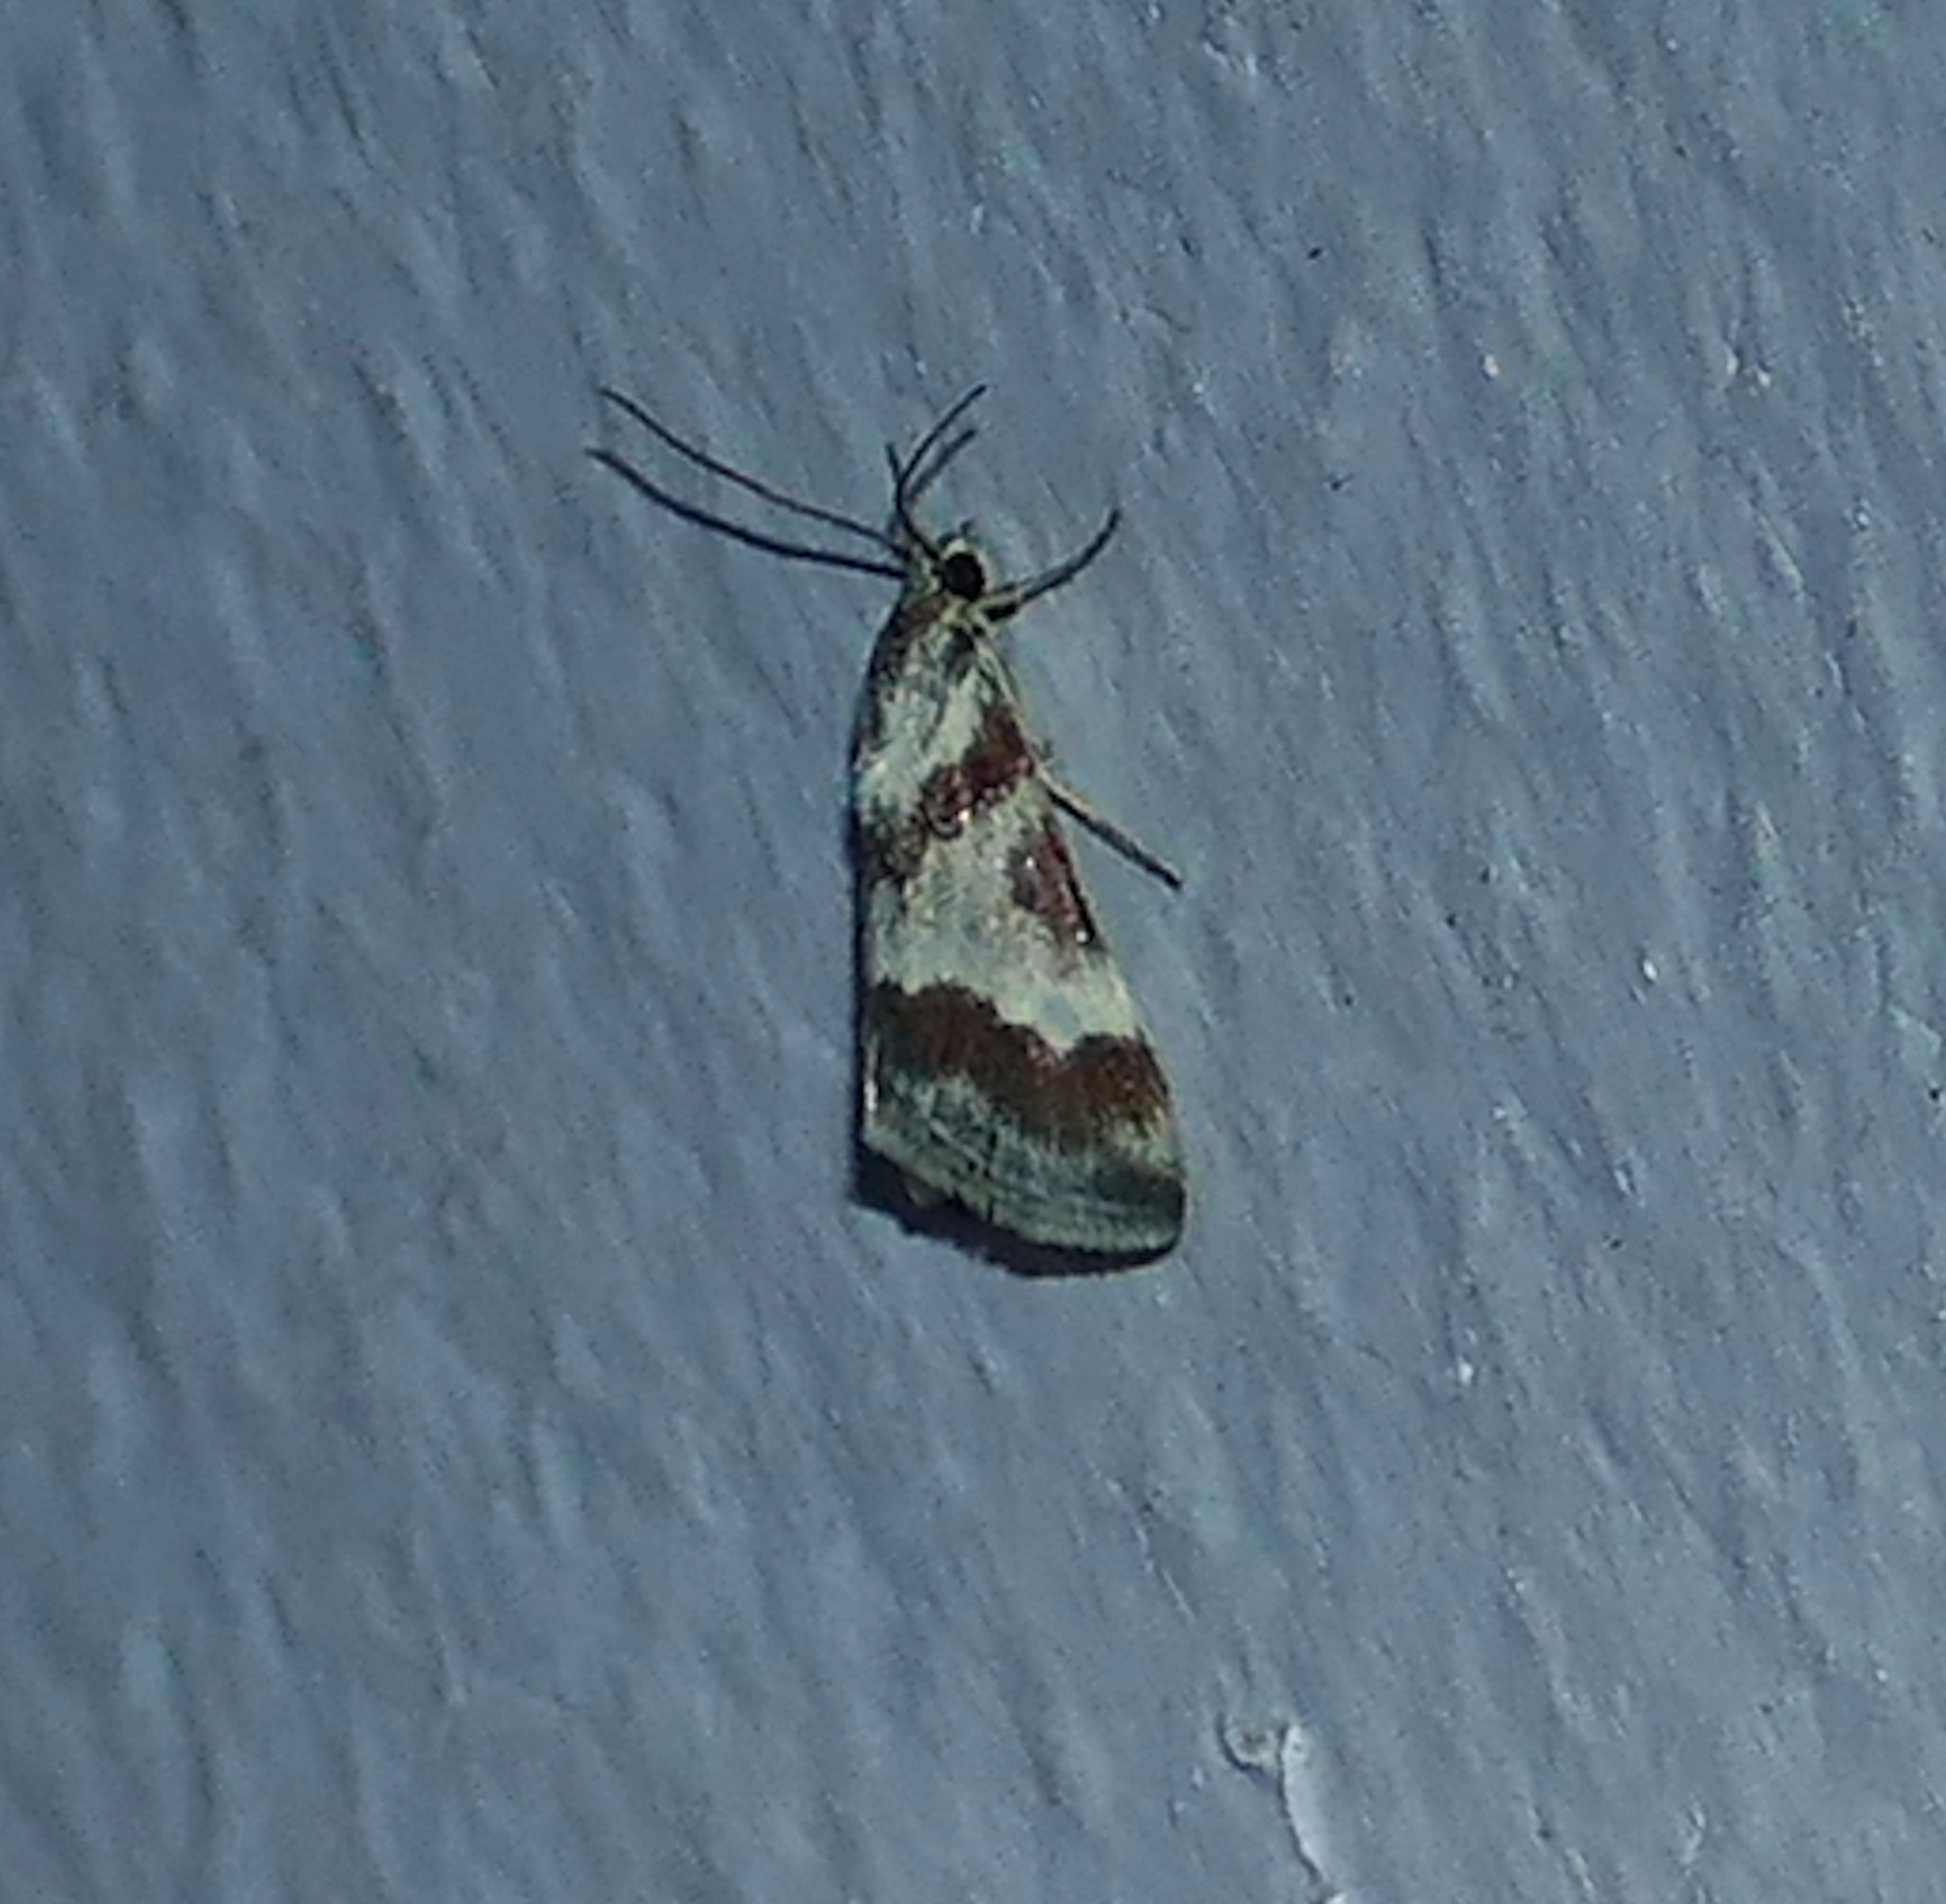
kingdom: Animalia
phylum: Arthropoda
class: Insecta
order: Lepidoptera
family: Crambidae
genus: Noctuelia
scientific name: Noctuelia Mimoschinia rufofascialis
